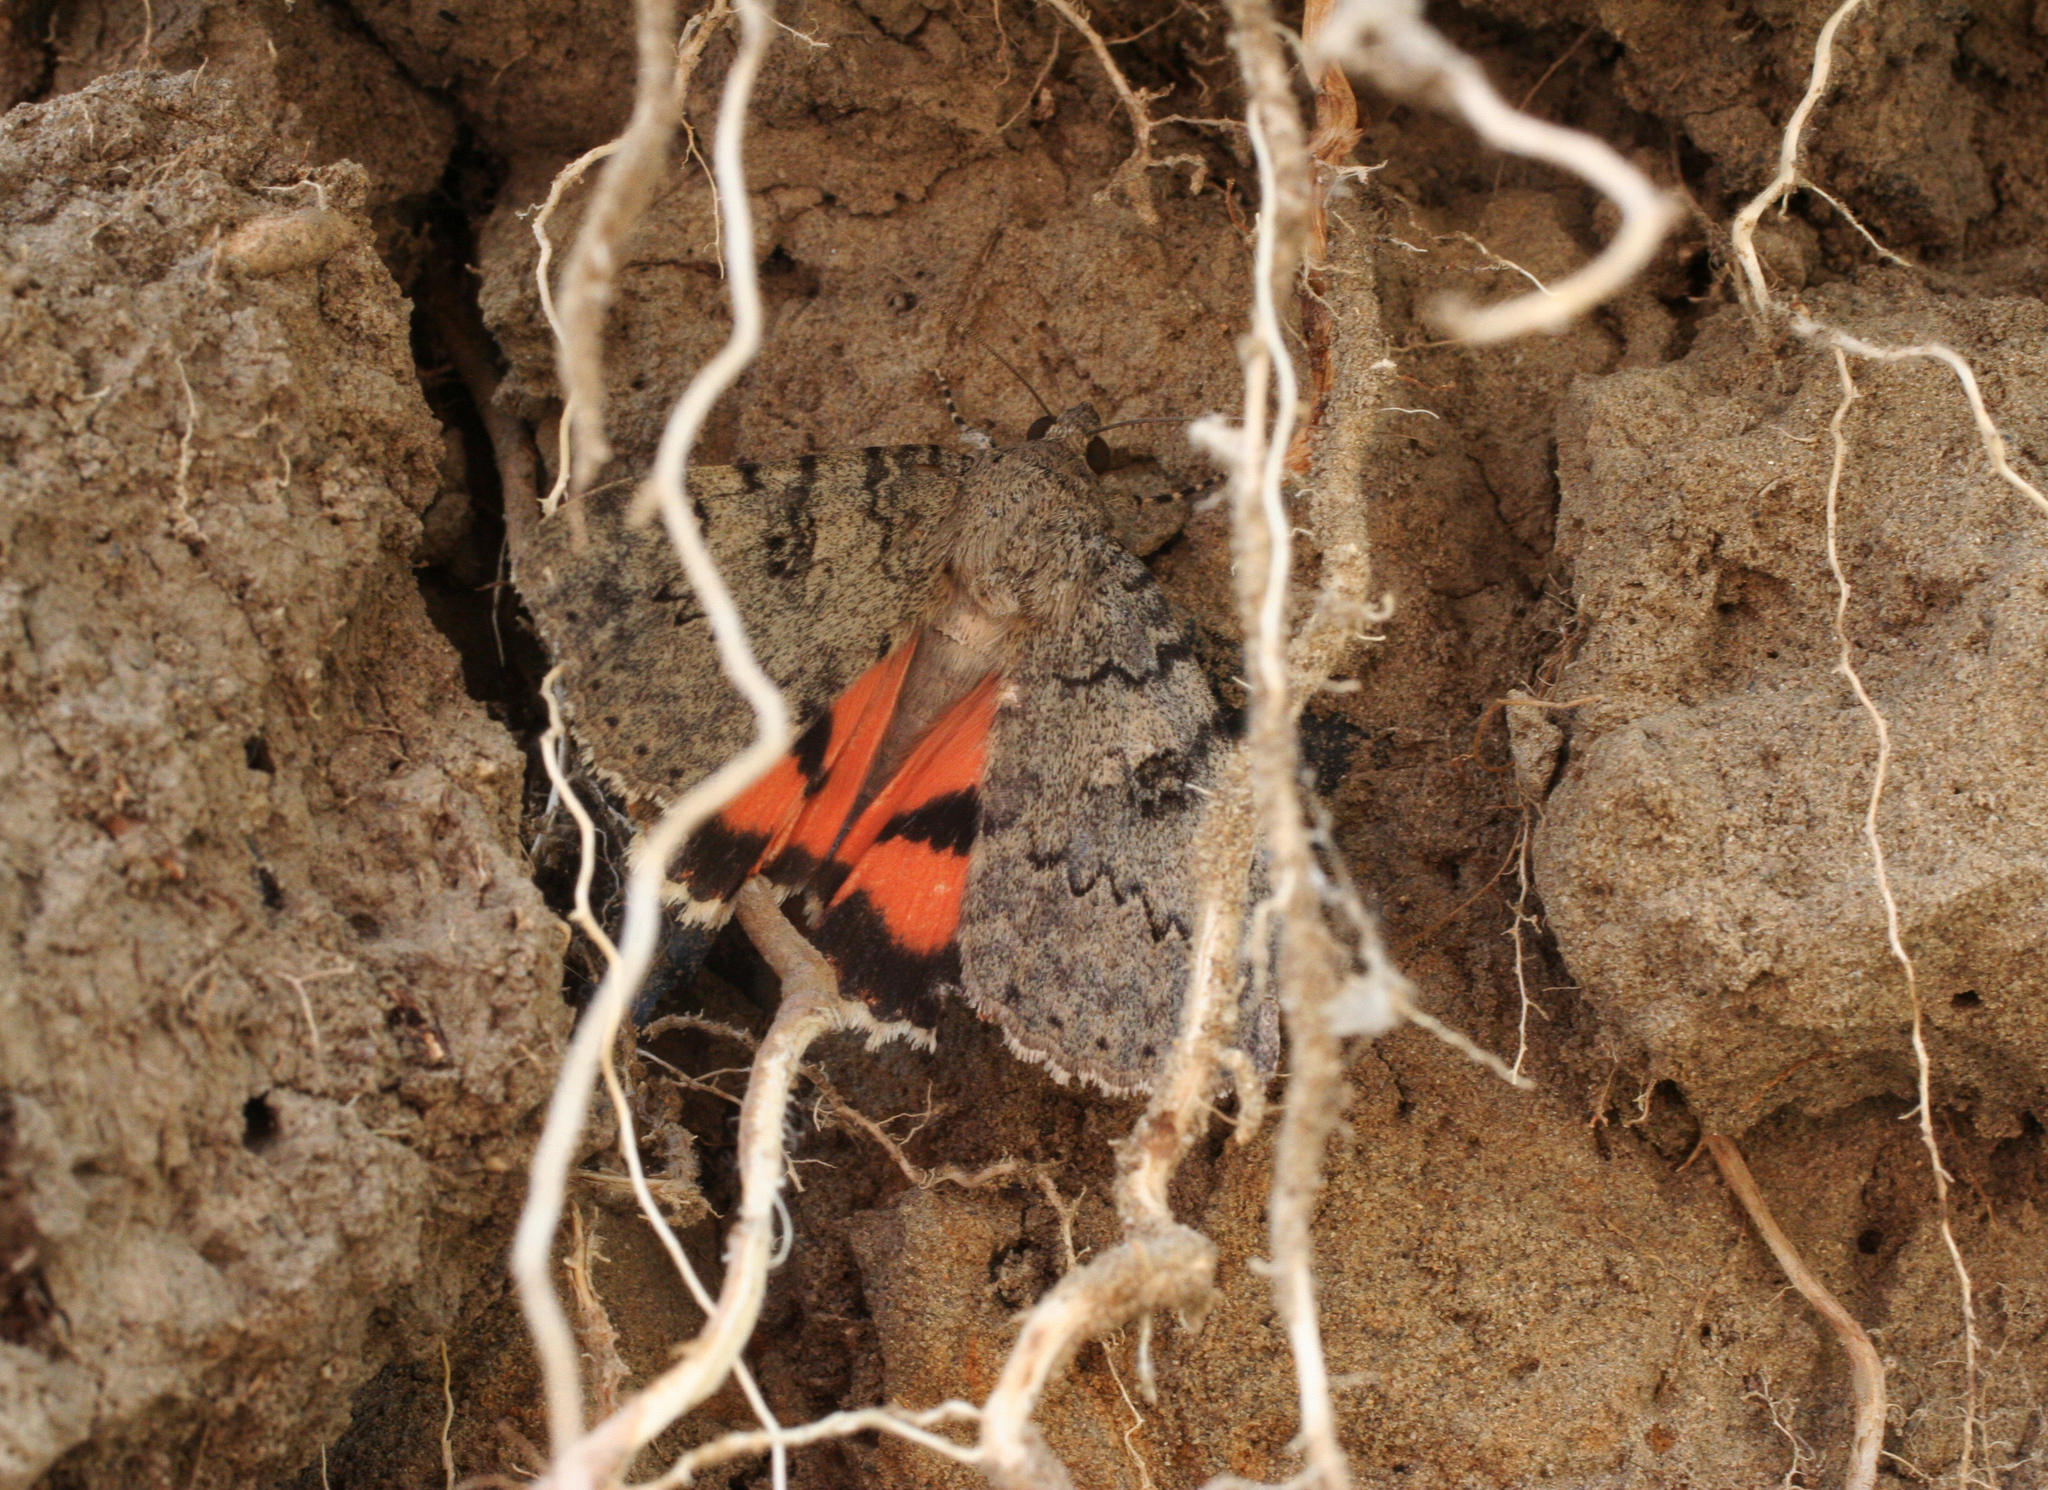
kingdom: Animalia
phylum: Arthropoda
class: Insecta
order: Lepidoptera
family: Erebidae
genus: Catocala
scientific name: Catocala puerpera
